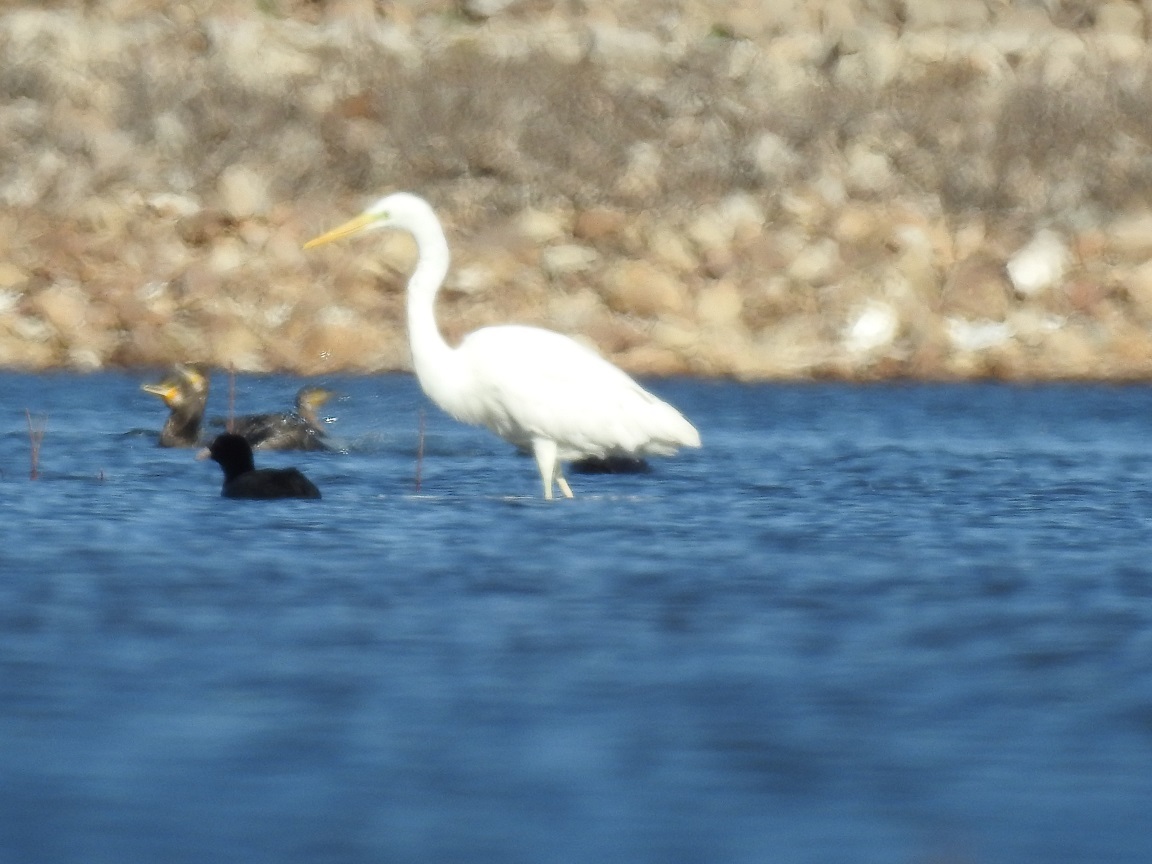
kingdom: Animalia
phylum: Chordata
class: Aves
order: Pelecaniformes
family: Ardeidae
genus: Ardea
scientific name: Ardea alba
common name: Great egret
